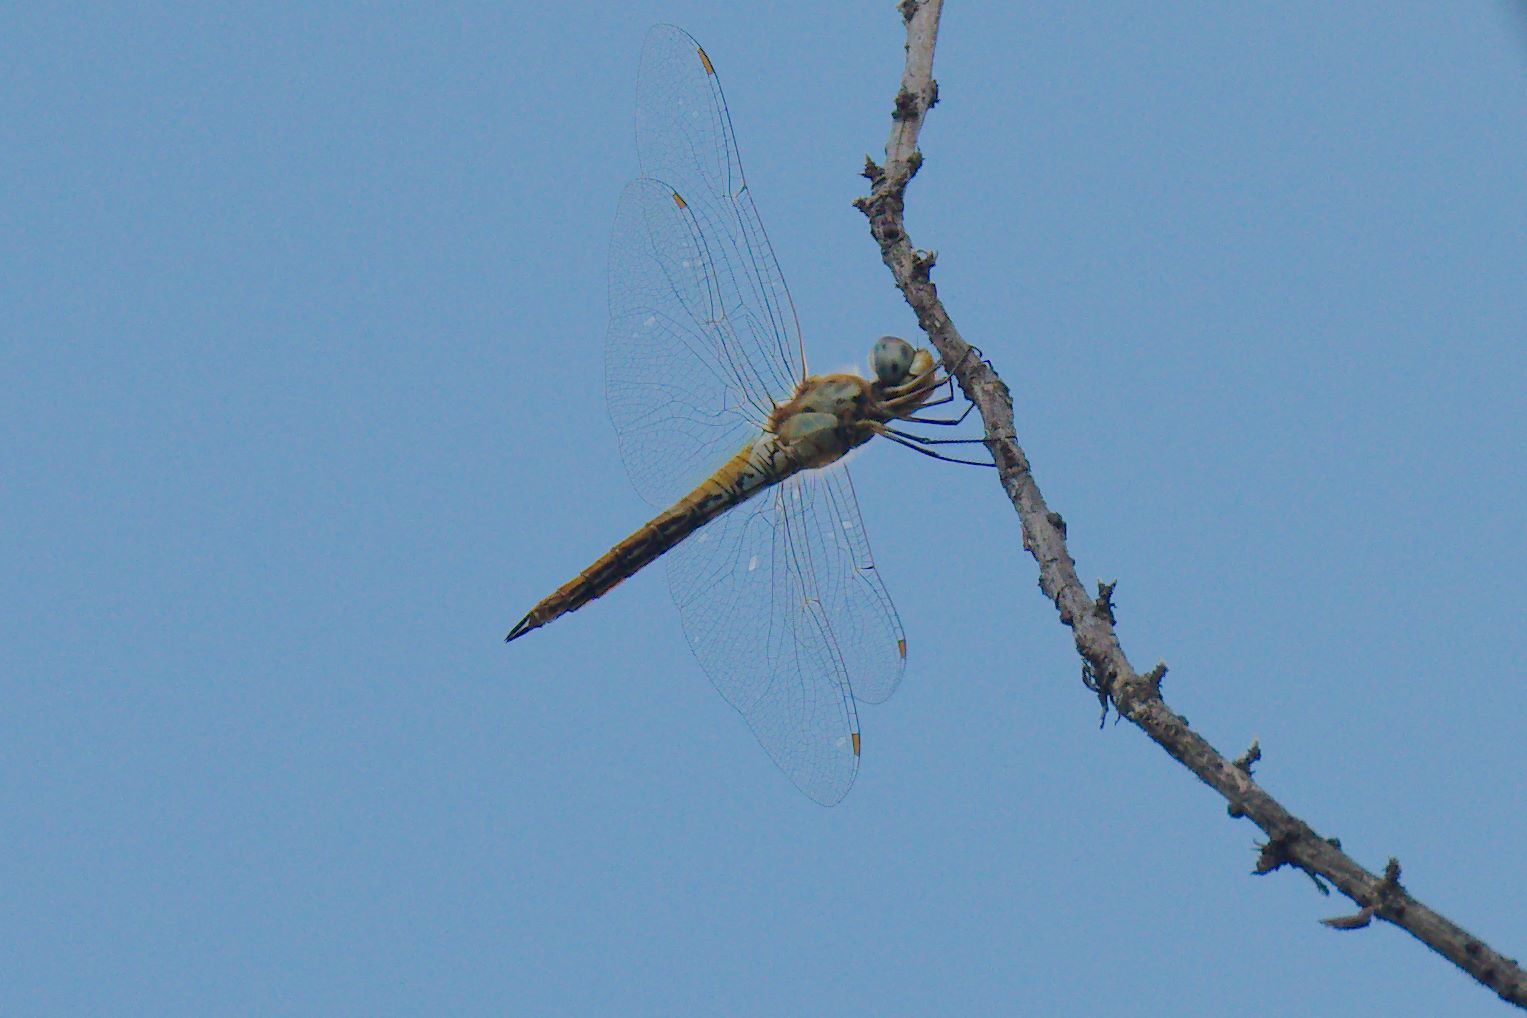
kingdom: Animalia
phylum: Arthropoda
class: Insecta
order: Odonata
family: Libellulidae
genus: Pantala
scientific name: Pantala flavescens
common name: Wandering glider
